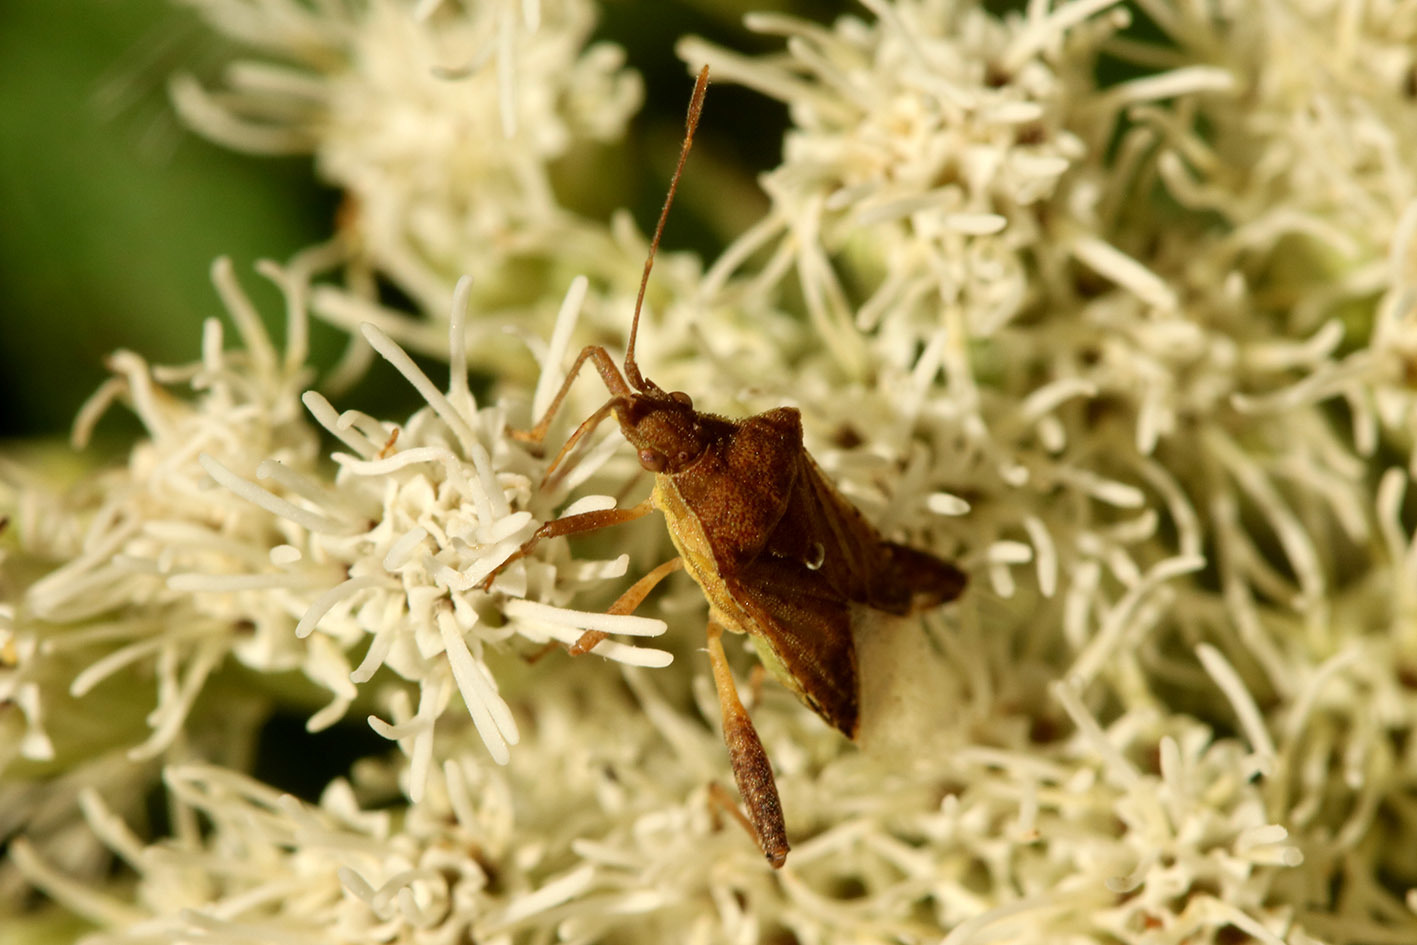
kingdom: Animalia
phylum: Arthropoda
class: Insecta
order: Hemiptera
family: Rhopalidae
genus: Harmostes
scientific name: Harmostes serratus
